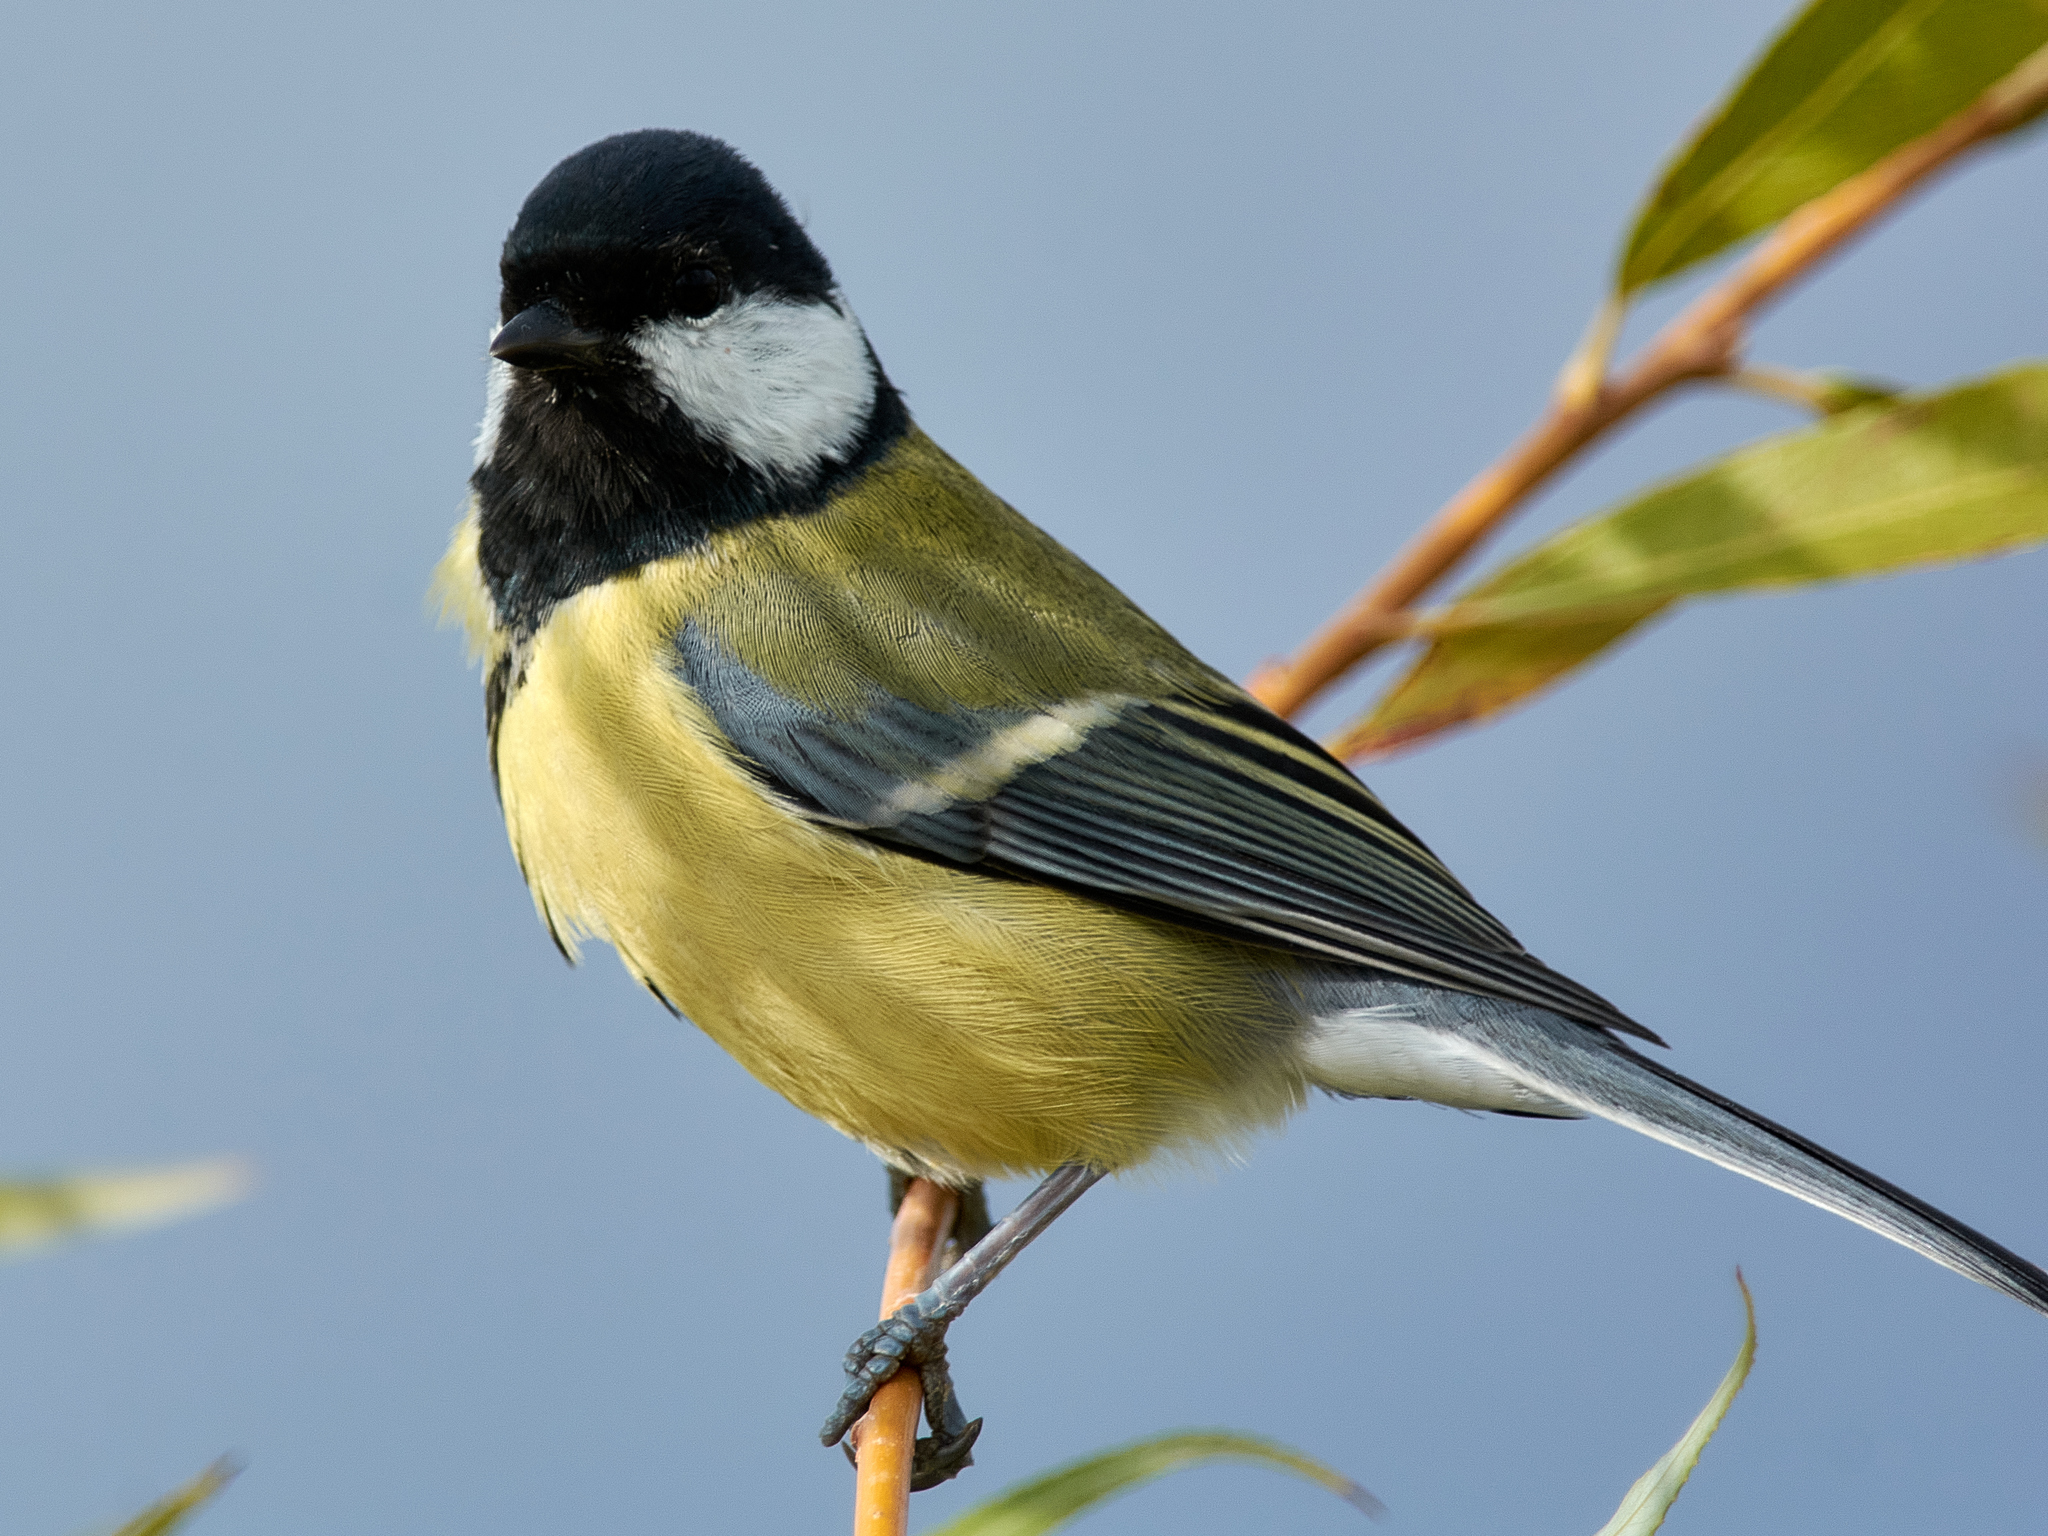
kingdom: Animalia
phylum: Chordata
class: Aves
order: Passeriformes
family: Paridae
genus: Parus
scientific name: Parus major
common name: Great tit
